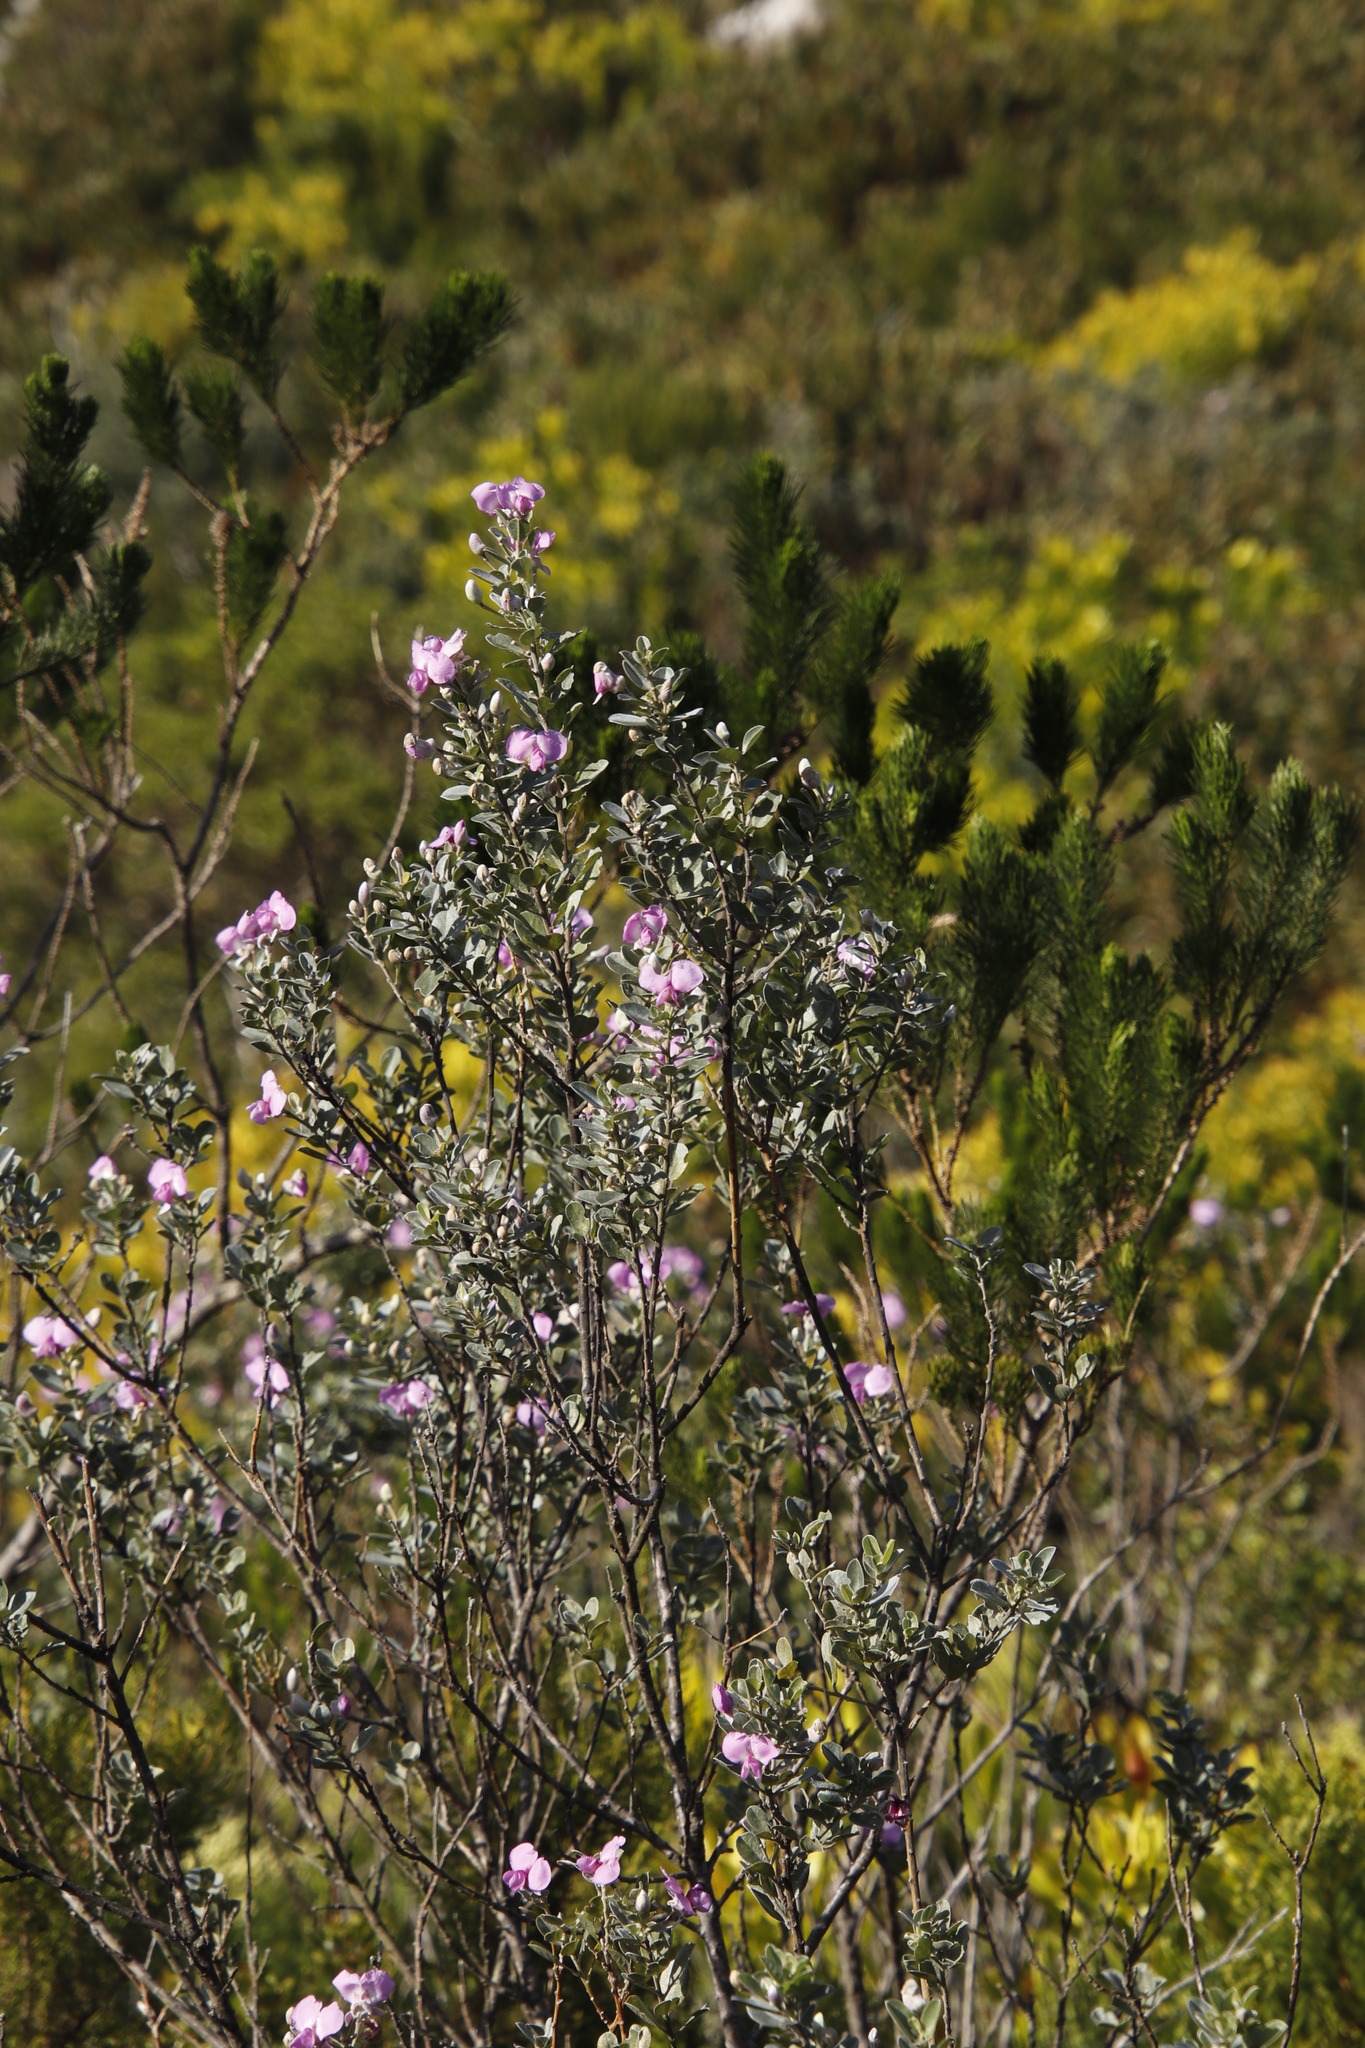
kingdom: Plantae
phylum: Tracheophyta
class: Magnoliopsida
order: Fabales
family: Fabaceae
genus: Podalyria
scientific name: Podalyria calyptrata
